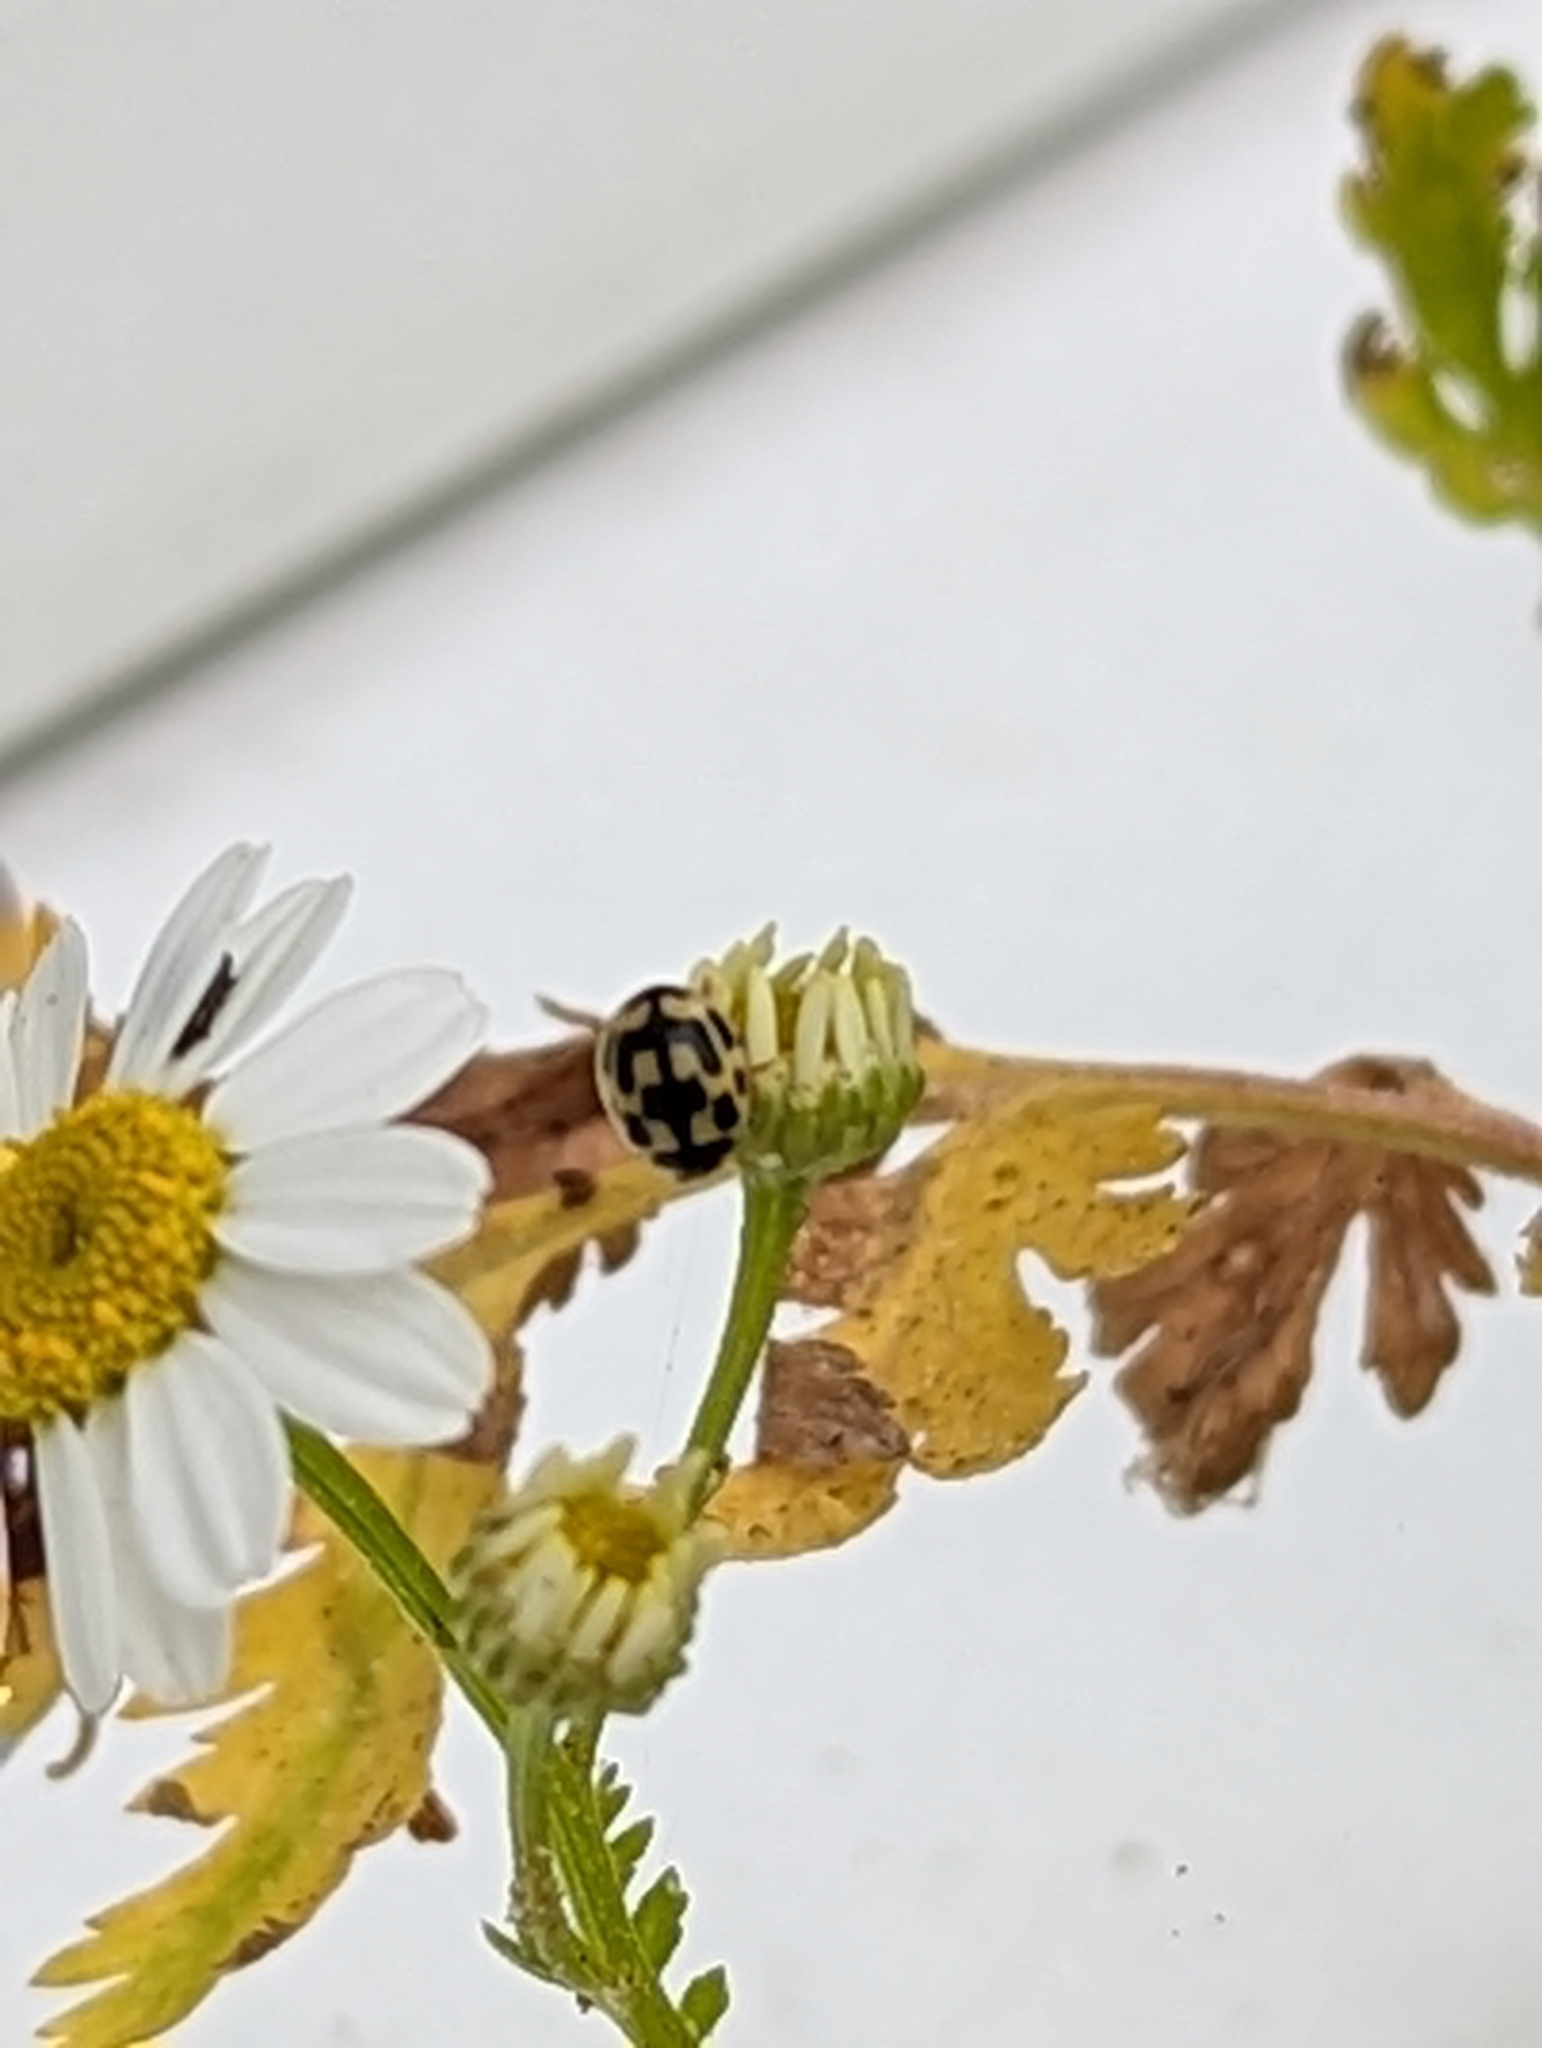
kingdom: Animalia
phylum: Arthropoda
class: Insecta
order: Coleoptera
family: Coccinellidae
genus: Propylaea
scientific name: Propylaea quatuordecimpunctata
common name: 14-spotted ladybird beetle
